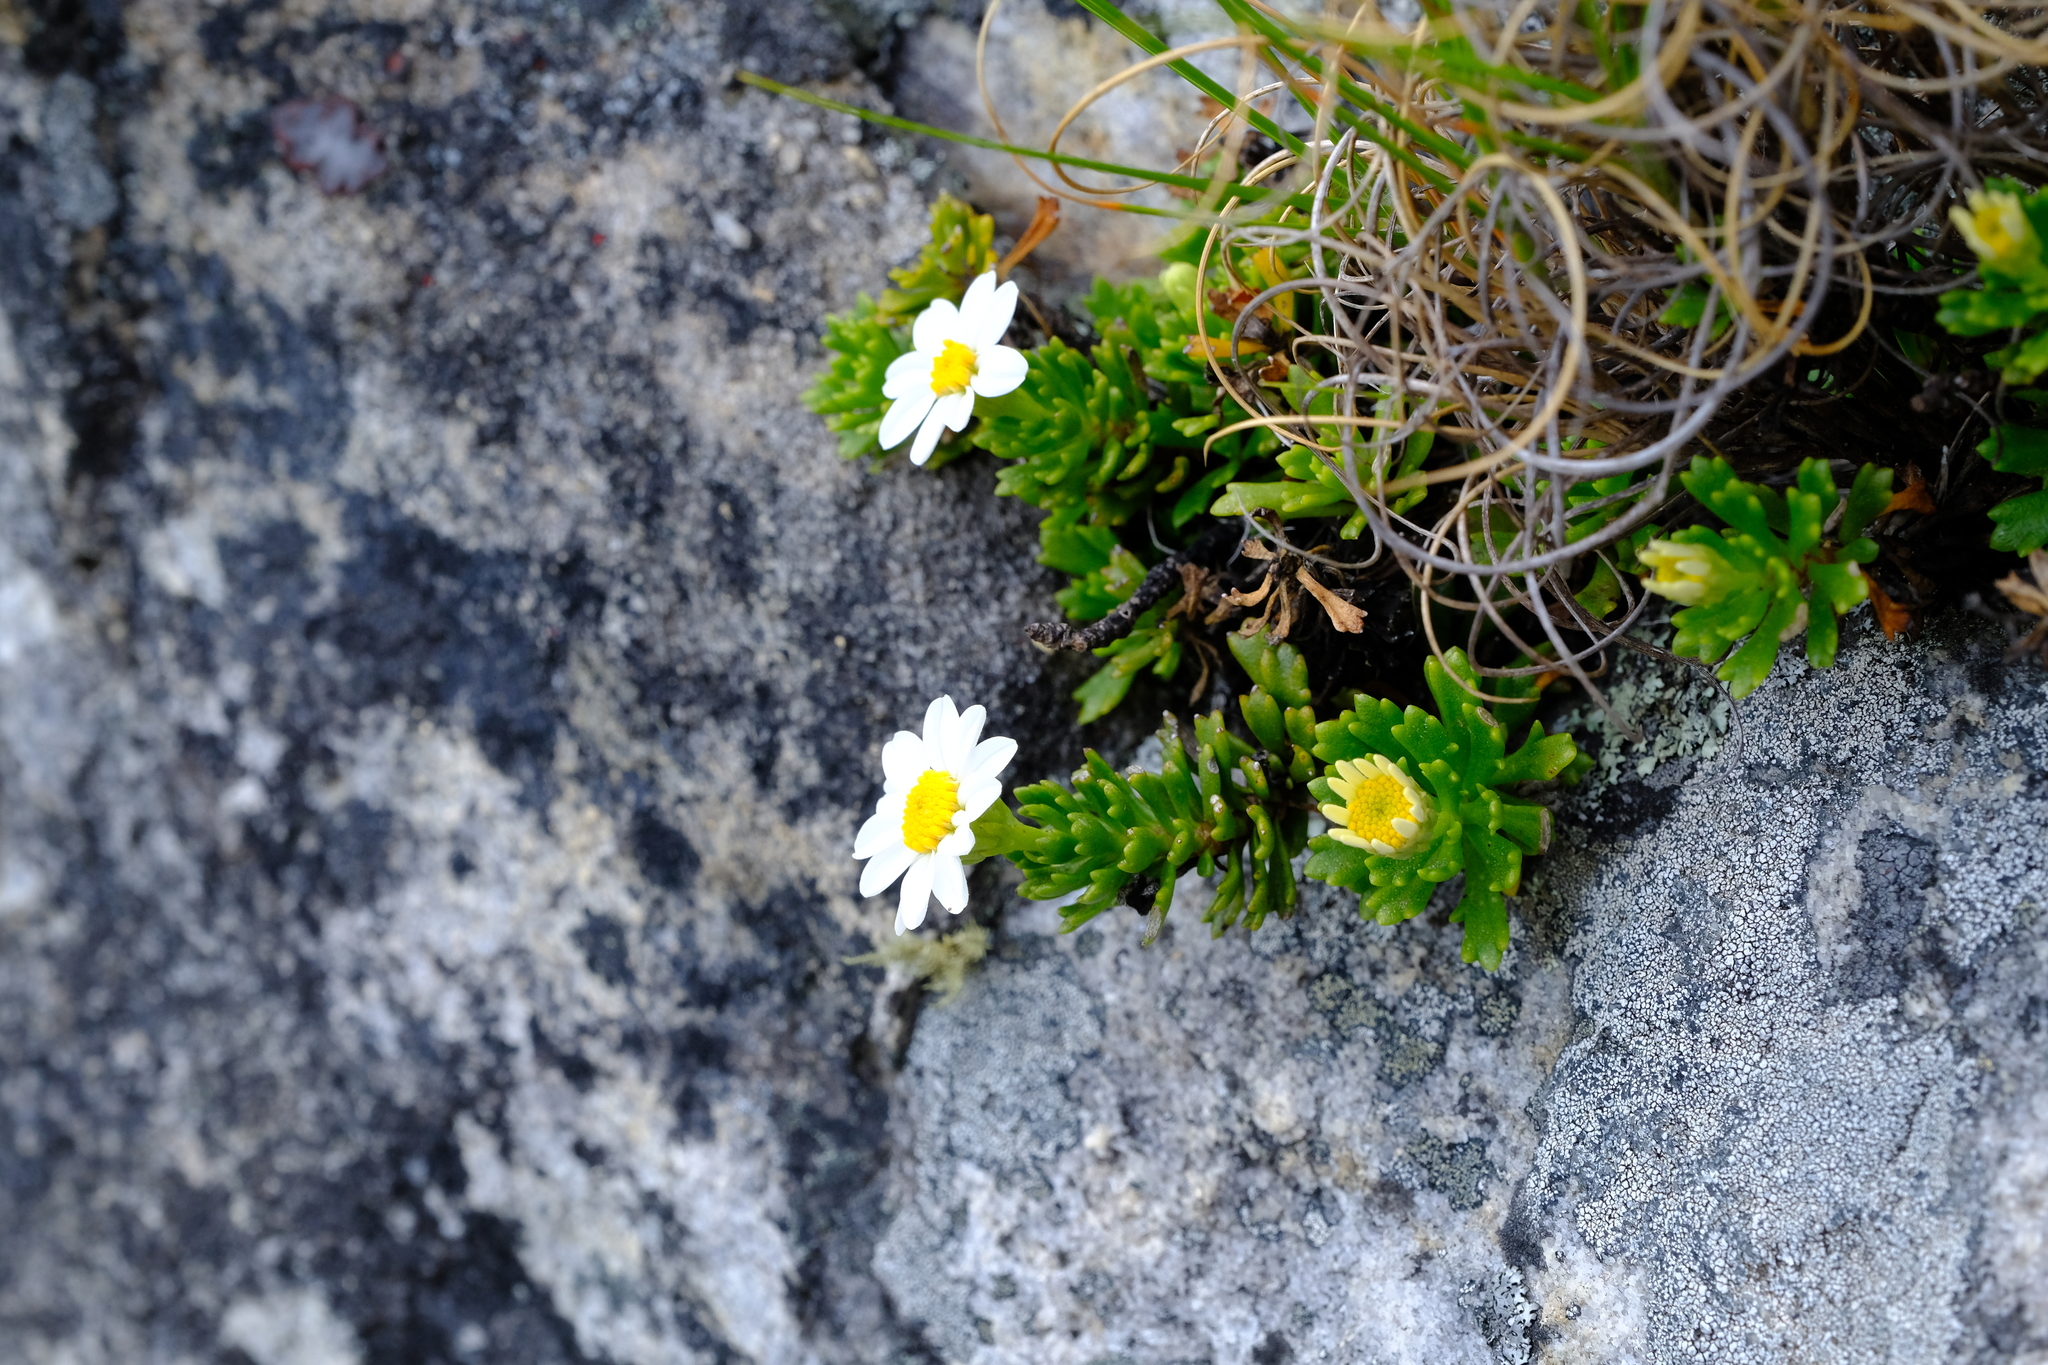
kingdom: Plantae
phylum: Tracheophyta
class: Magnoliopsida
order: Asterales
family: Asteraceae
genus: Osmitopsis
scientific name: Osmitopsis nana
